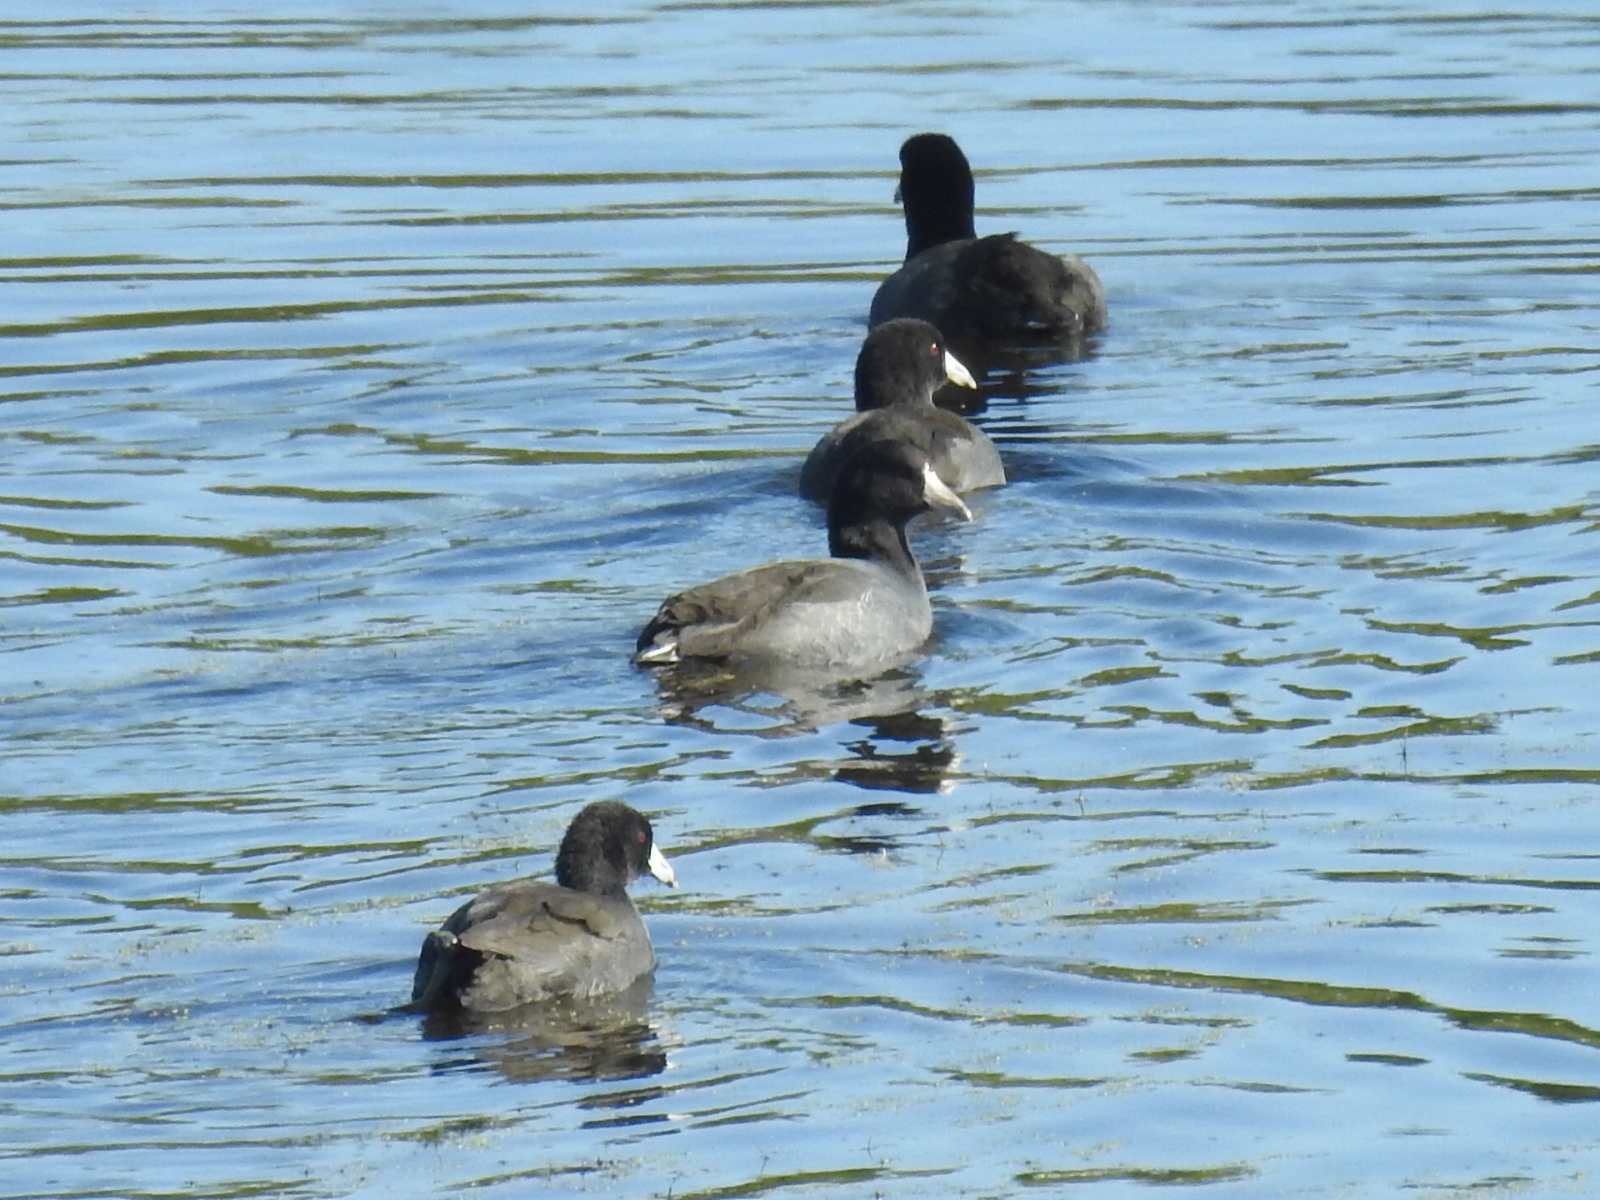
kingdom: Animalia
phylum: Chordata
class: Aves
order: Gruiformes
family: Rallidae
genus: Fulica
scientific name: Fulica americana
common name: American coot
